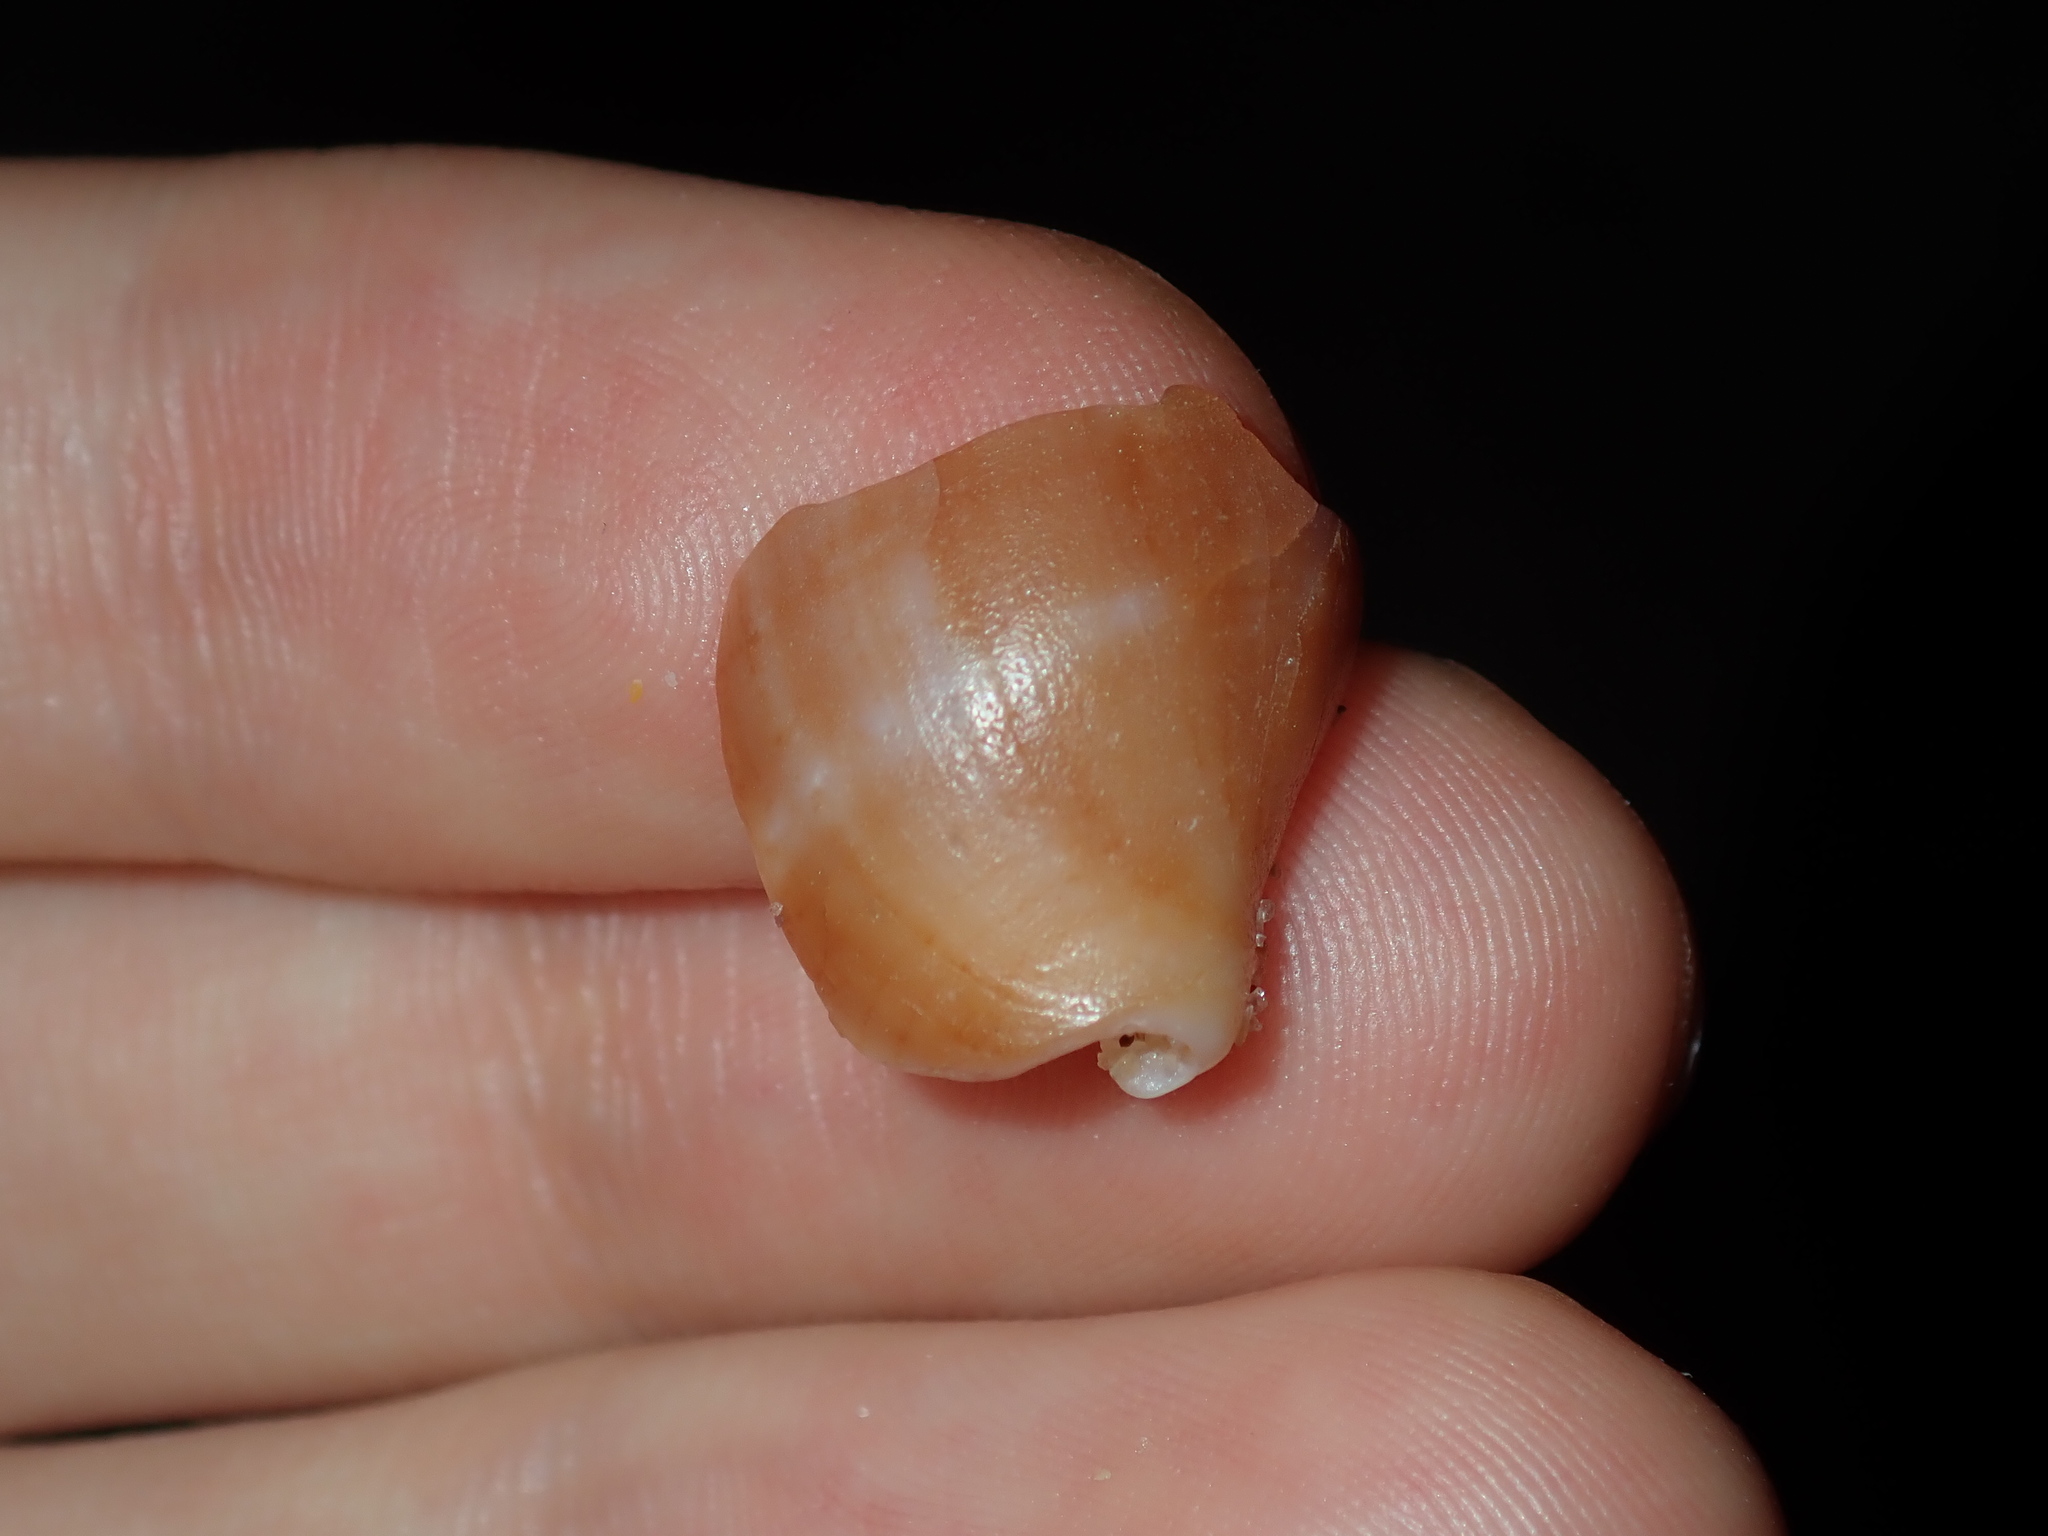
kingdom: Animalia
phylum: Mollusca
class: Gastropoda
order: Neogastropoda
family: Volutidae
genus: Lyria
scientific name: Lyria laseroni
